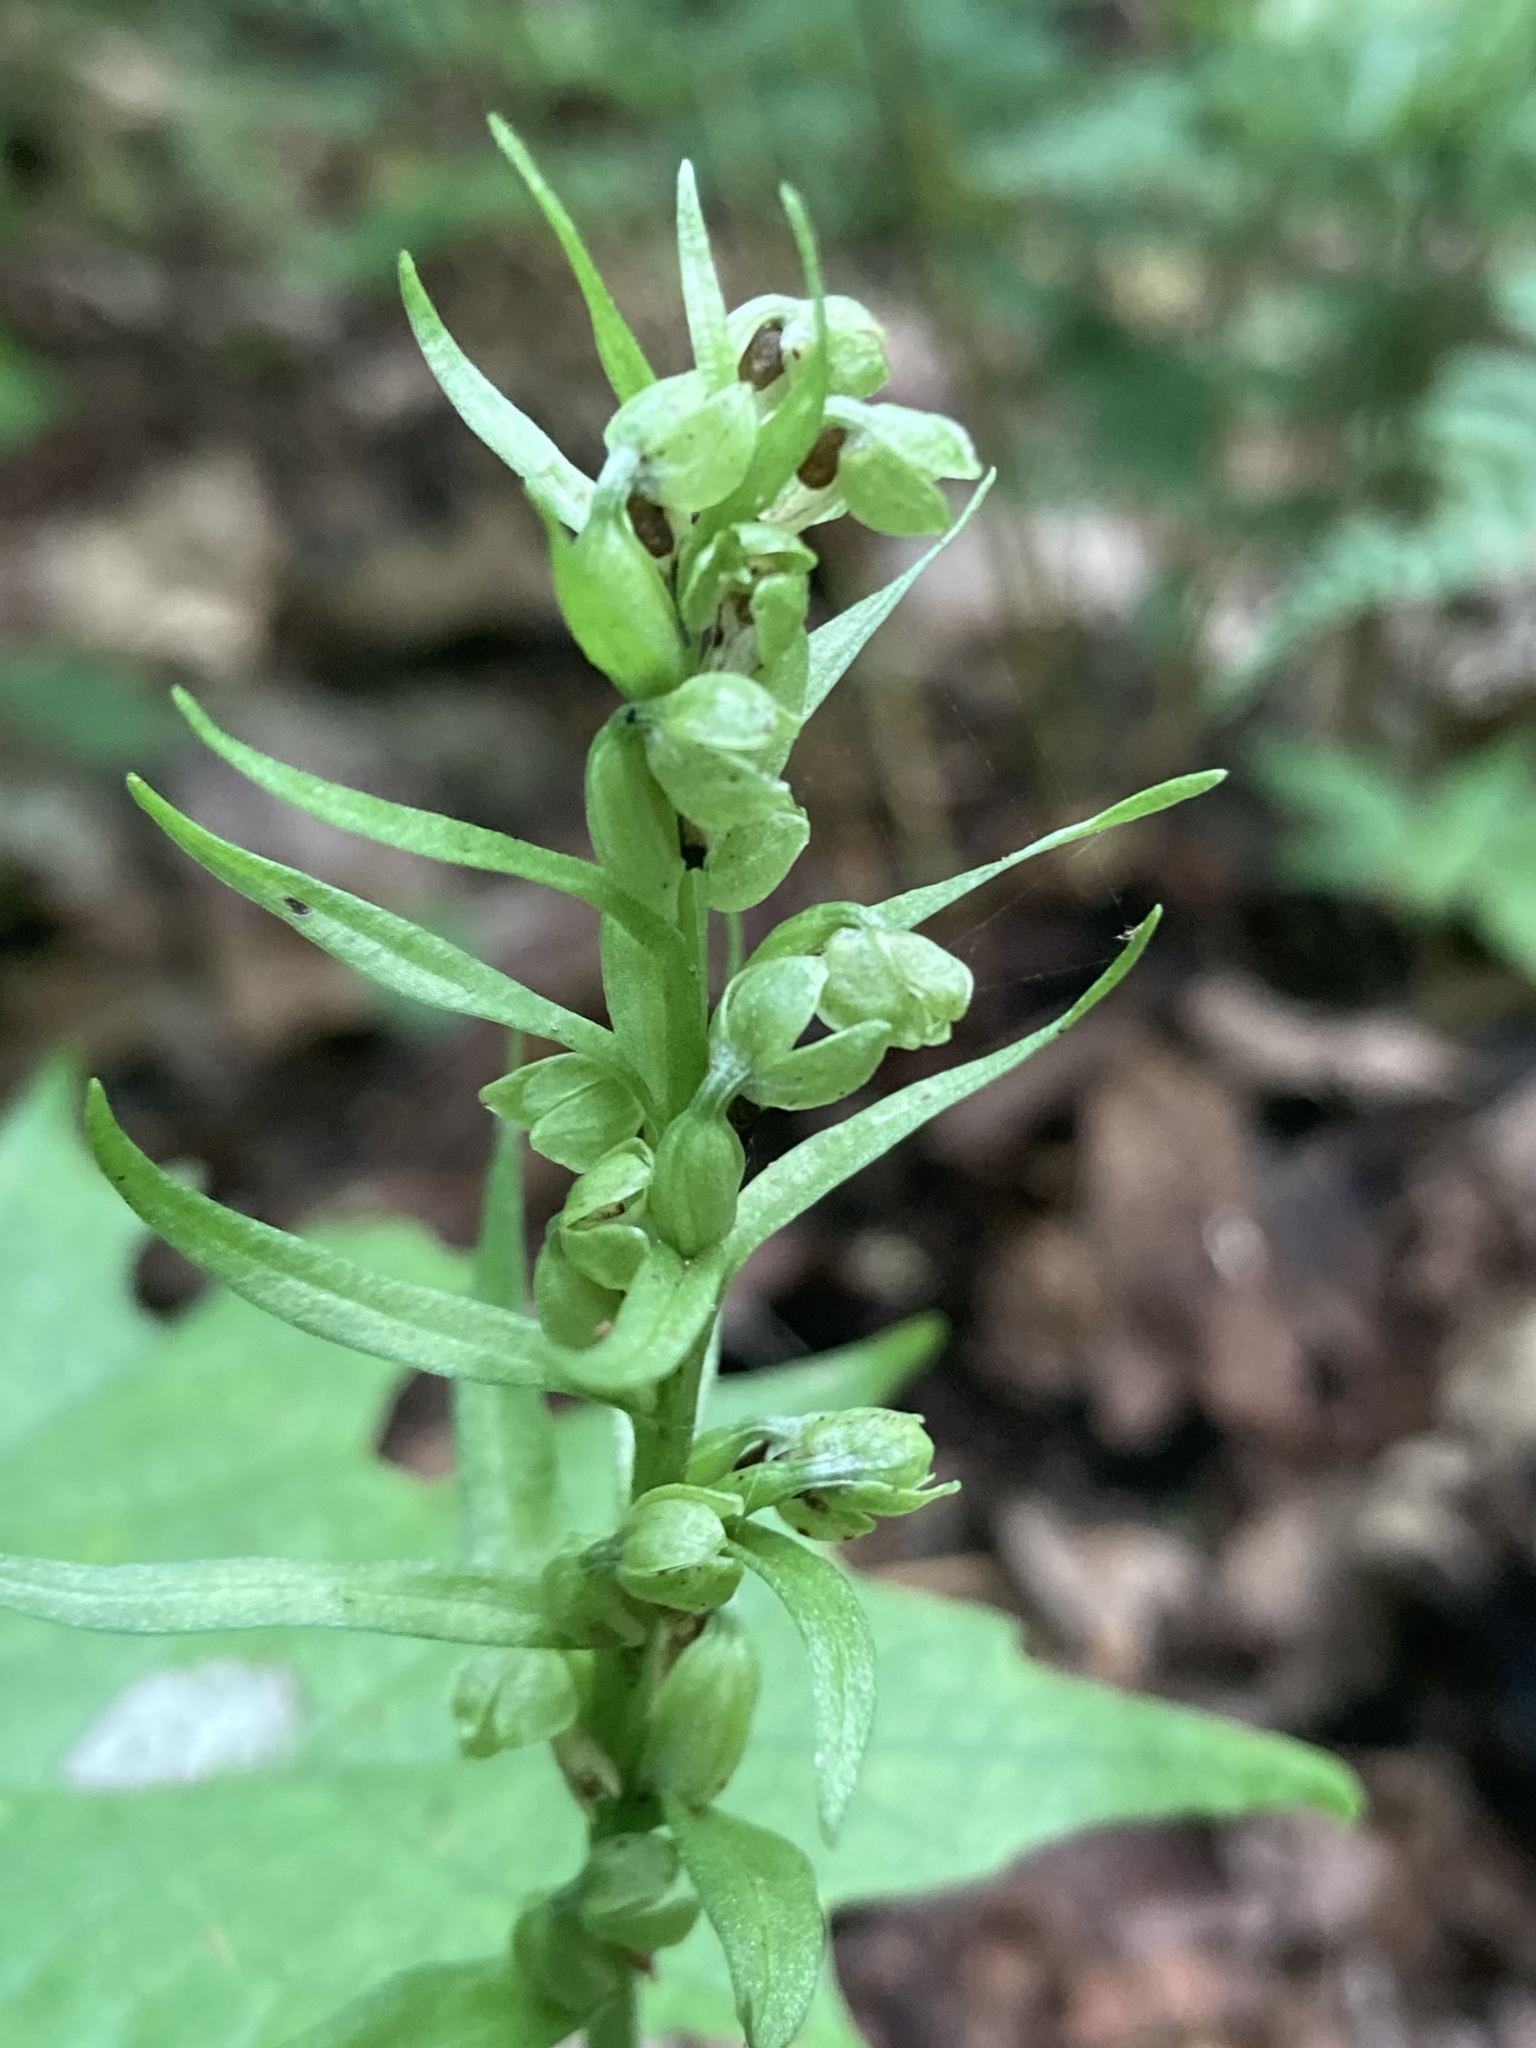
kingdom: Plantae
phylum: Tracheophyta
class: Liliopsida
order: Asparagales
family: Orchidaceae
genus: Dactylorhiza
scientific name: Dactylorhiza viridis
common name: Longbract frog orchid
